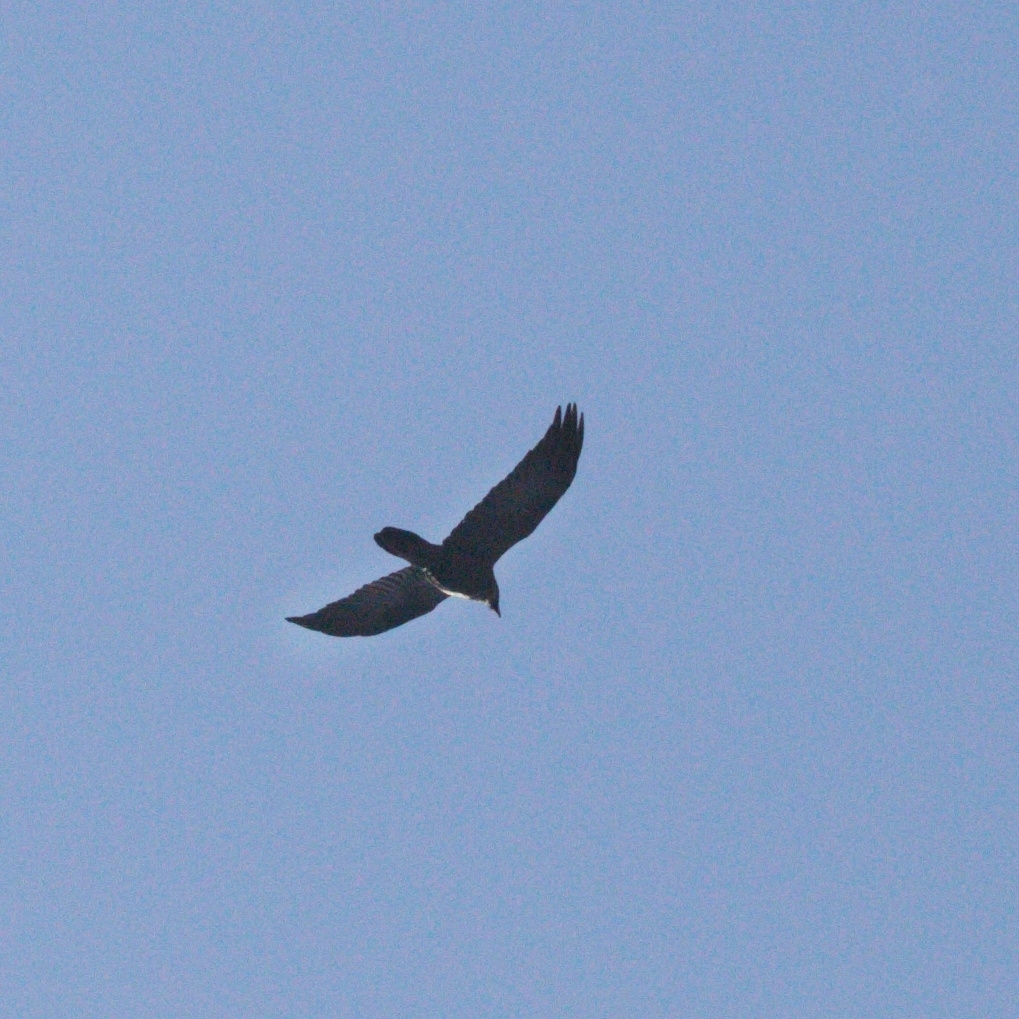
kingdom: Animalia
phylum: Chordata
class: Aves
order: Passeriformes
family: Corvidae
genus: Corvus
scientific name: Corvus corax
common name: Common raven
